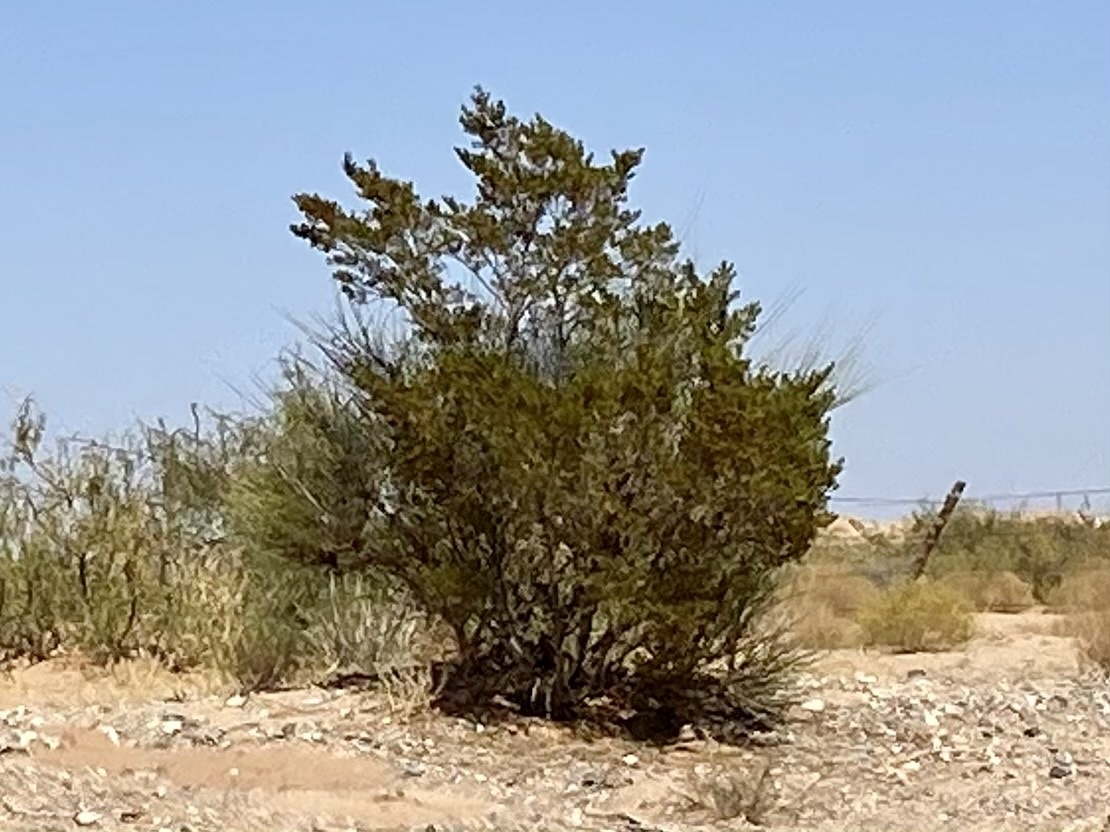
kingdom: Plantae
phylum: Tracheophyta
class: Magnoliopsida
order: Zygophyllales
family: Zygophyllaceae
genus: Larrea
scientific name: Larrea tridentata
